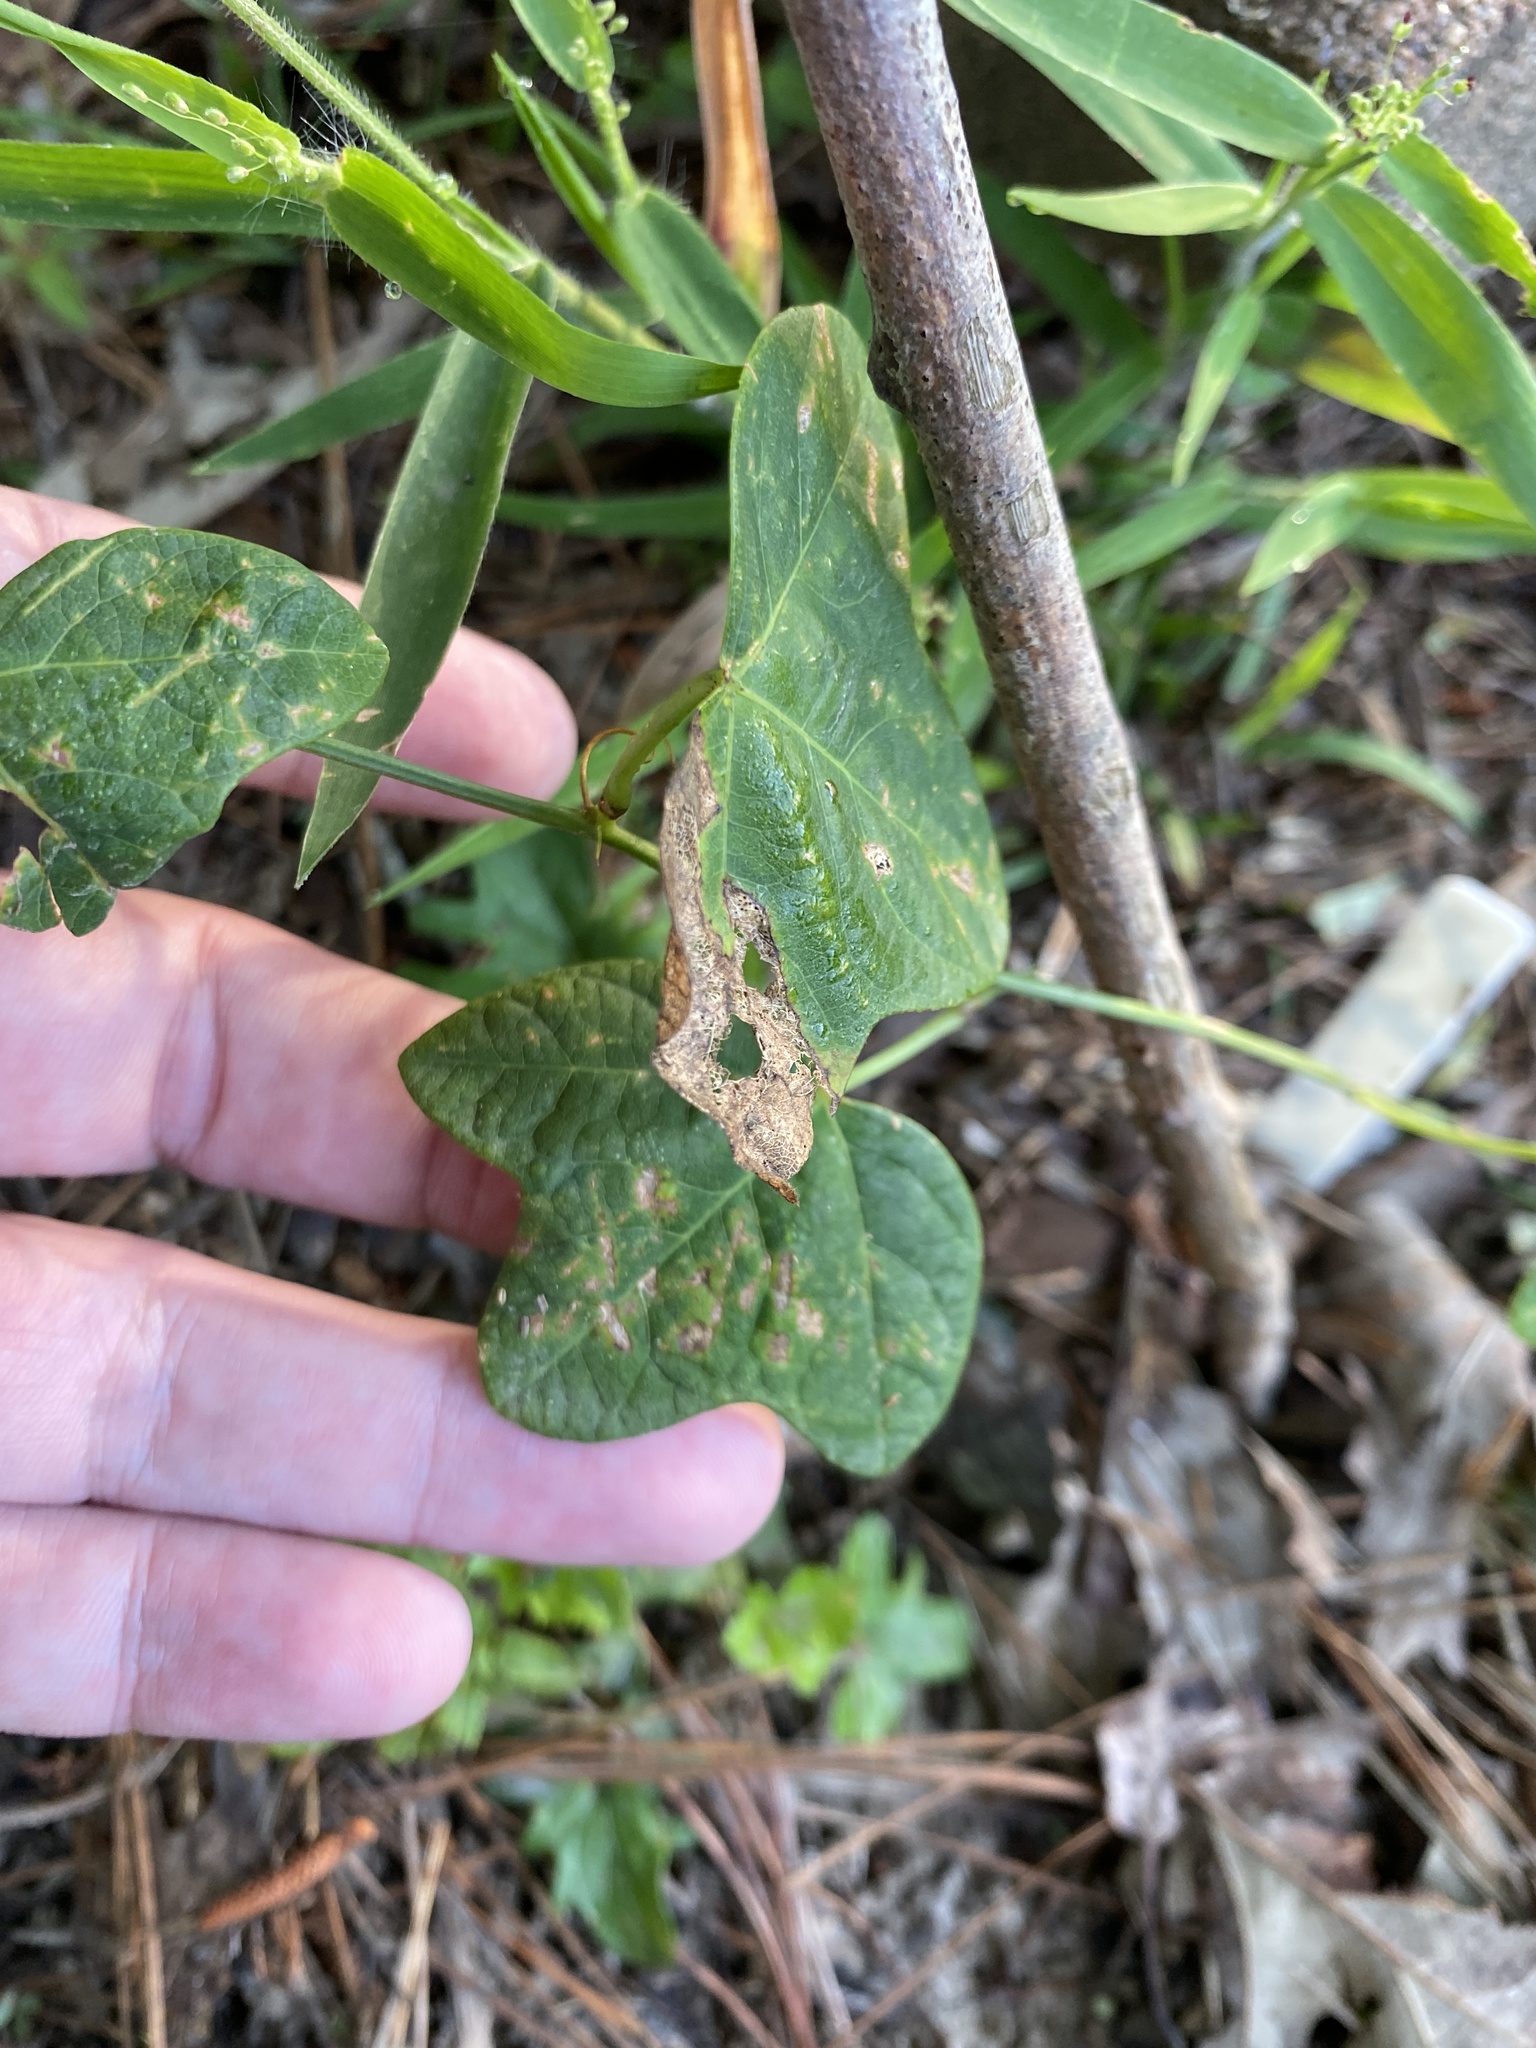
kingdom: Plantae
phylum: Tracheophyta
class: Magnoliopsida
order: Malpighiales
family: Passifloraceae
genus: Passiflora
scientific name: Passiflora lutea
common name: Yellow passionflower
